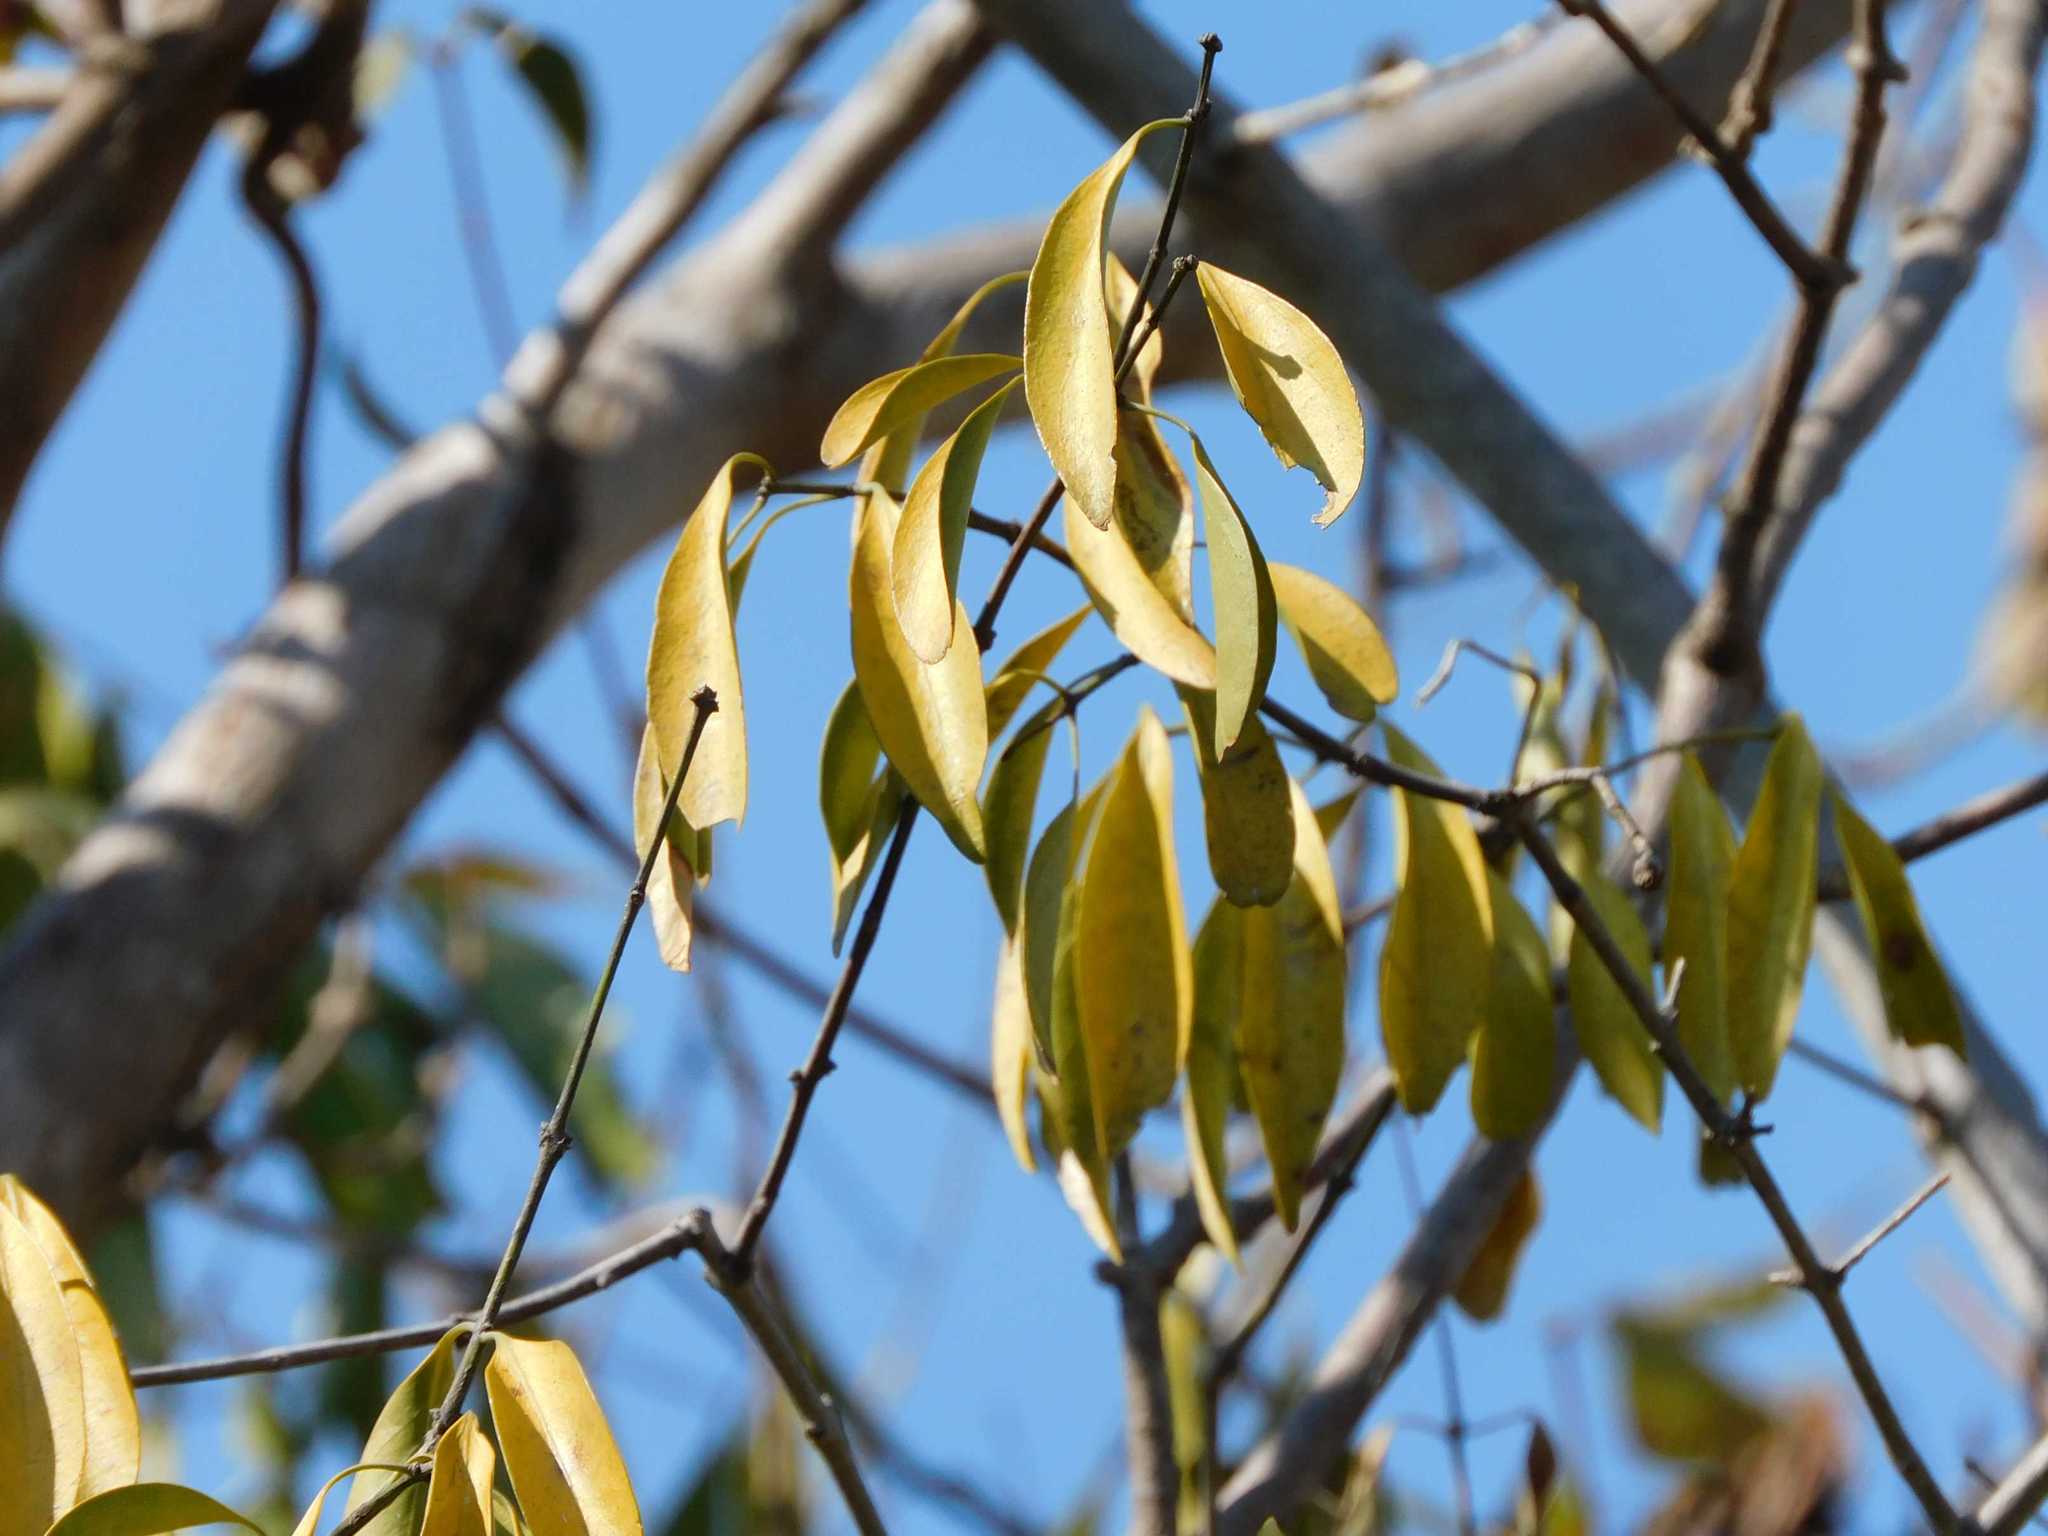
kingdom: Plantae
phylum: Tracheophyta
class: Magnoliopsida
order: Celastrales
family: Celastraceae
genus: Pristimera
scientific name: Pristimera longipetiolata
